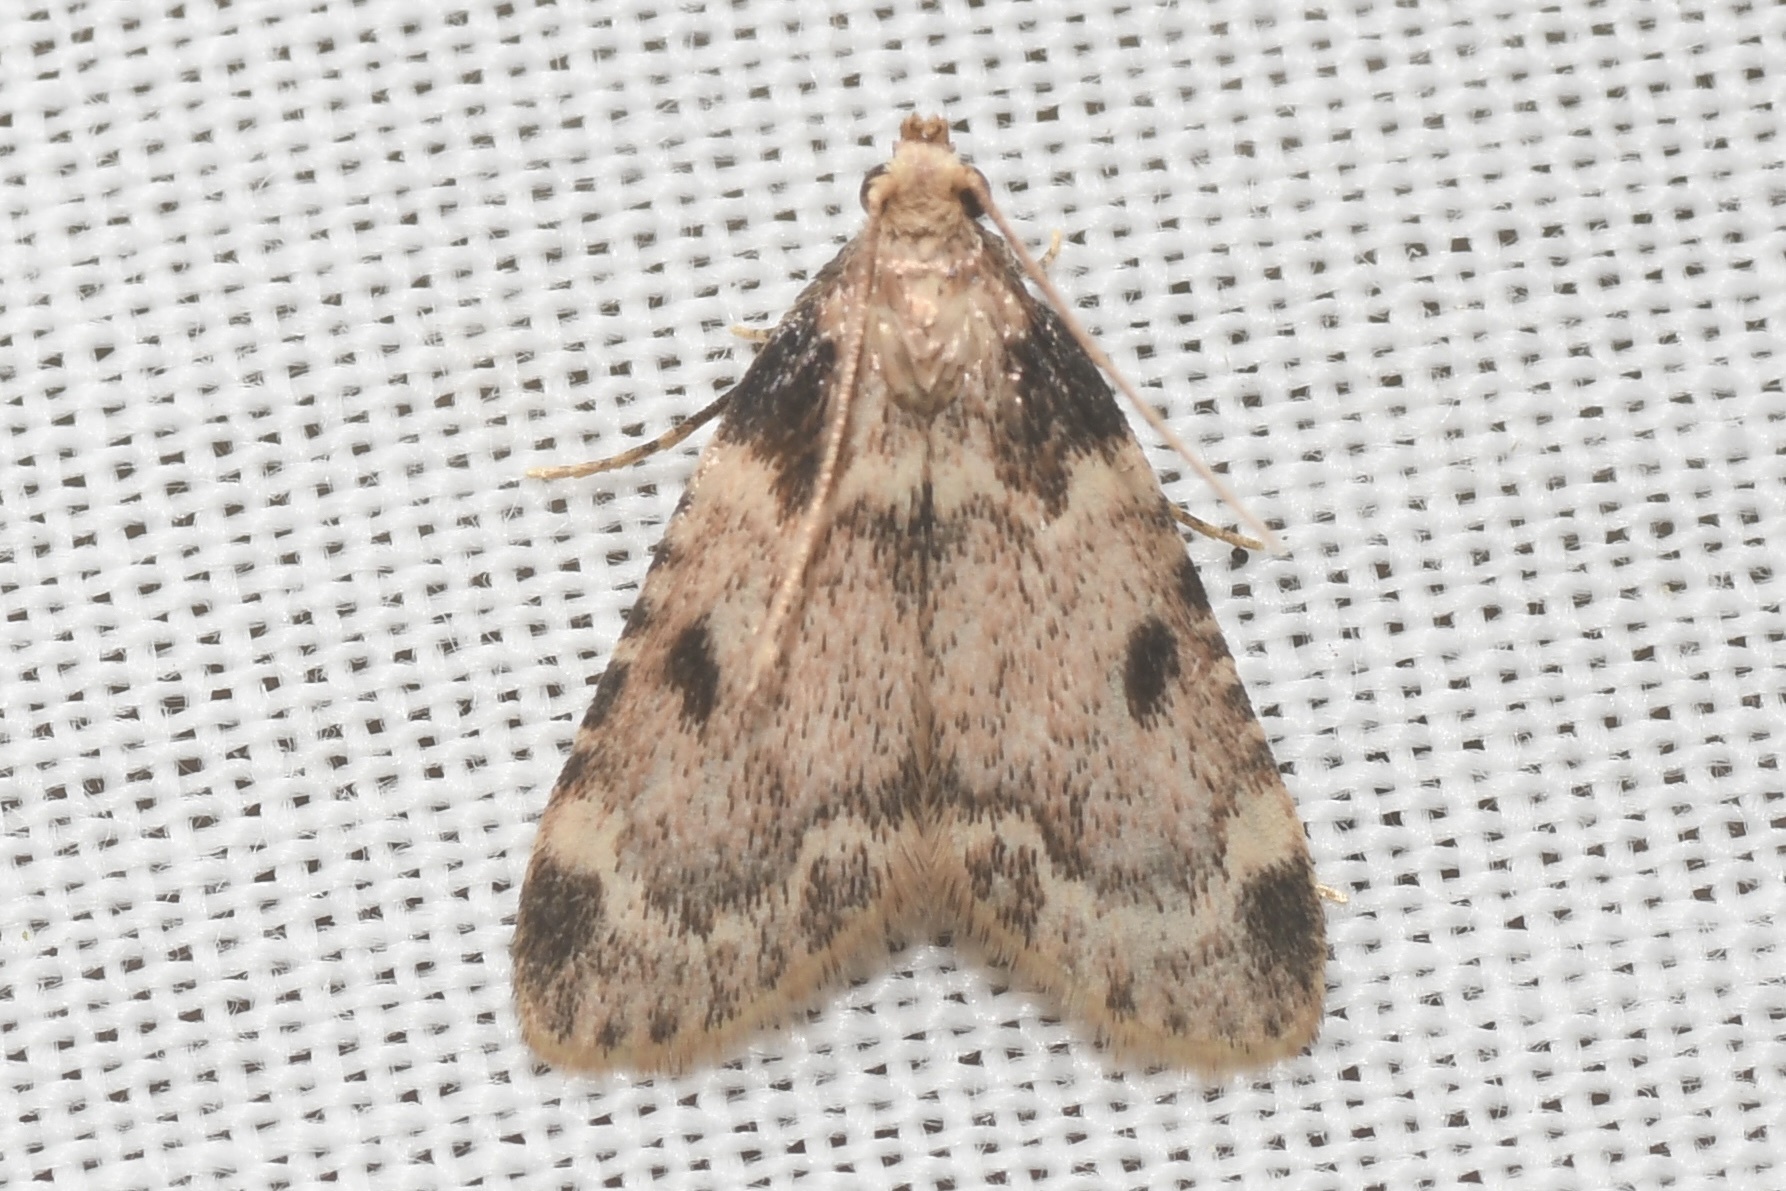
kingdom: Animalia
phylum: Arthropoda
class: Insecta
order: Lepidoptera
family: Pyralidae
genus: Aglossa
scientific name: Aglossa costiferalis
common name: Calico pyralid moth
